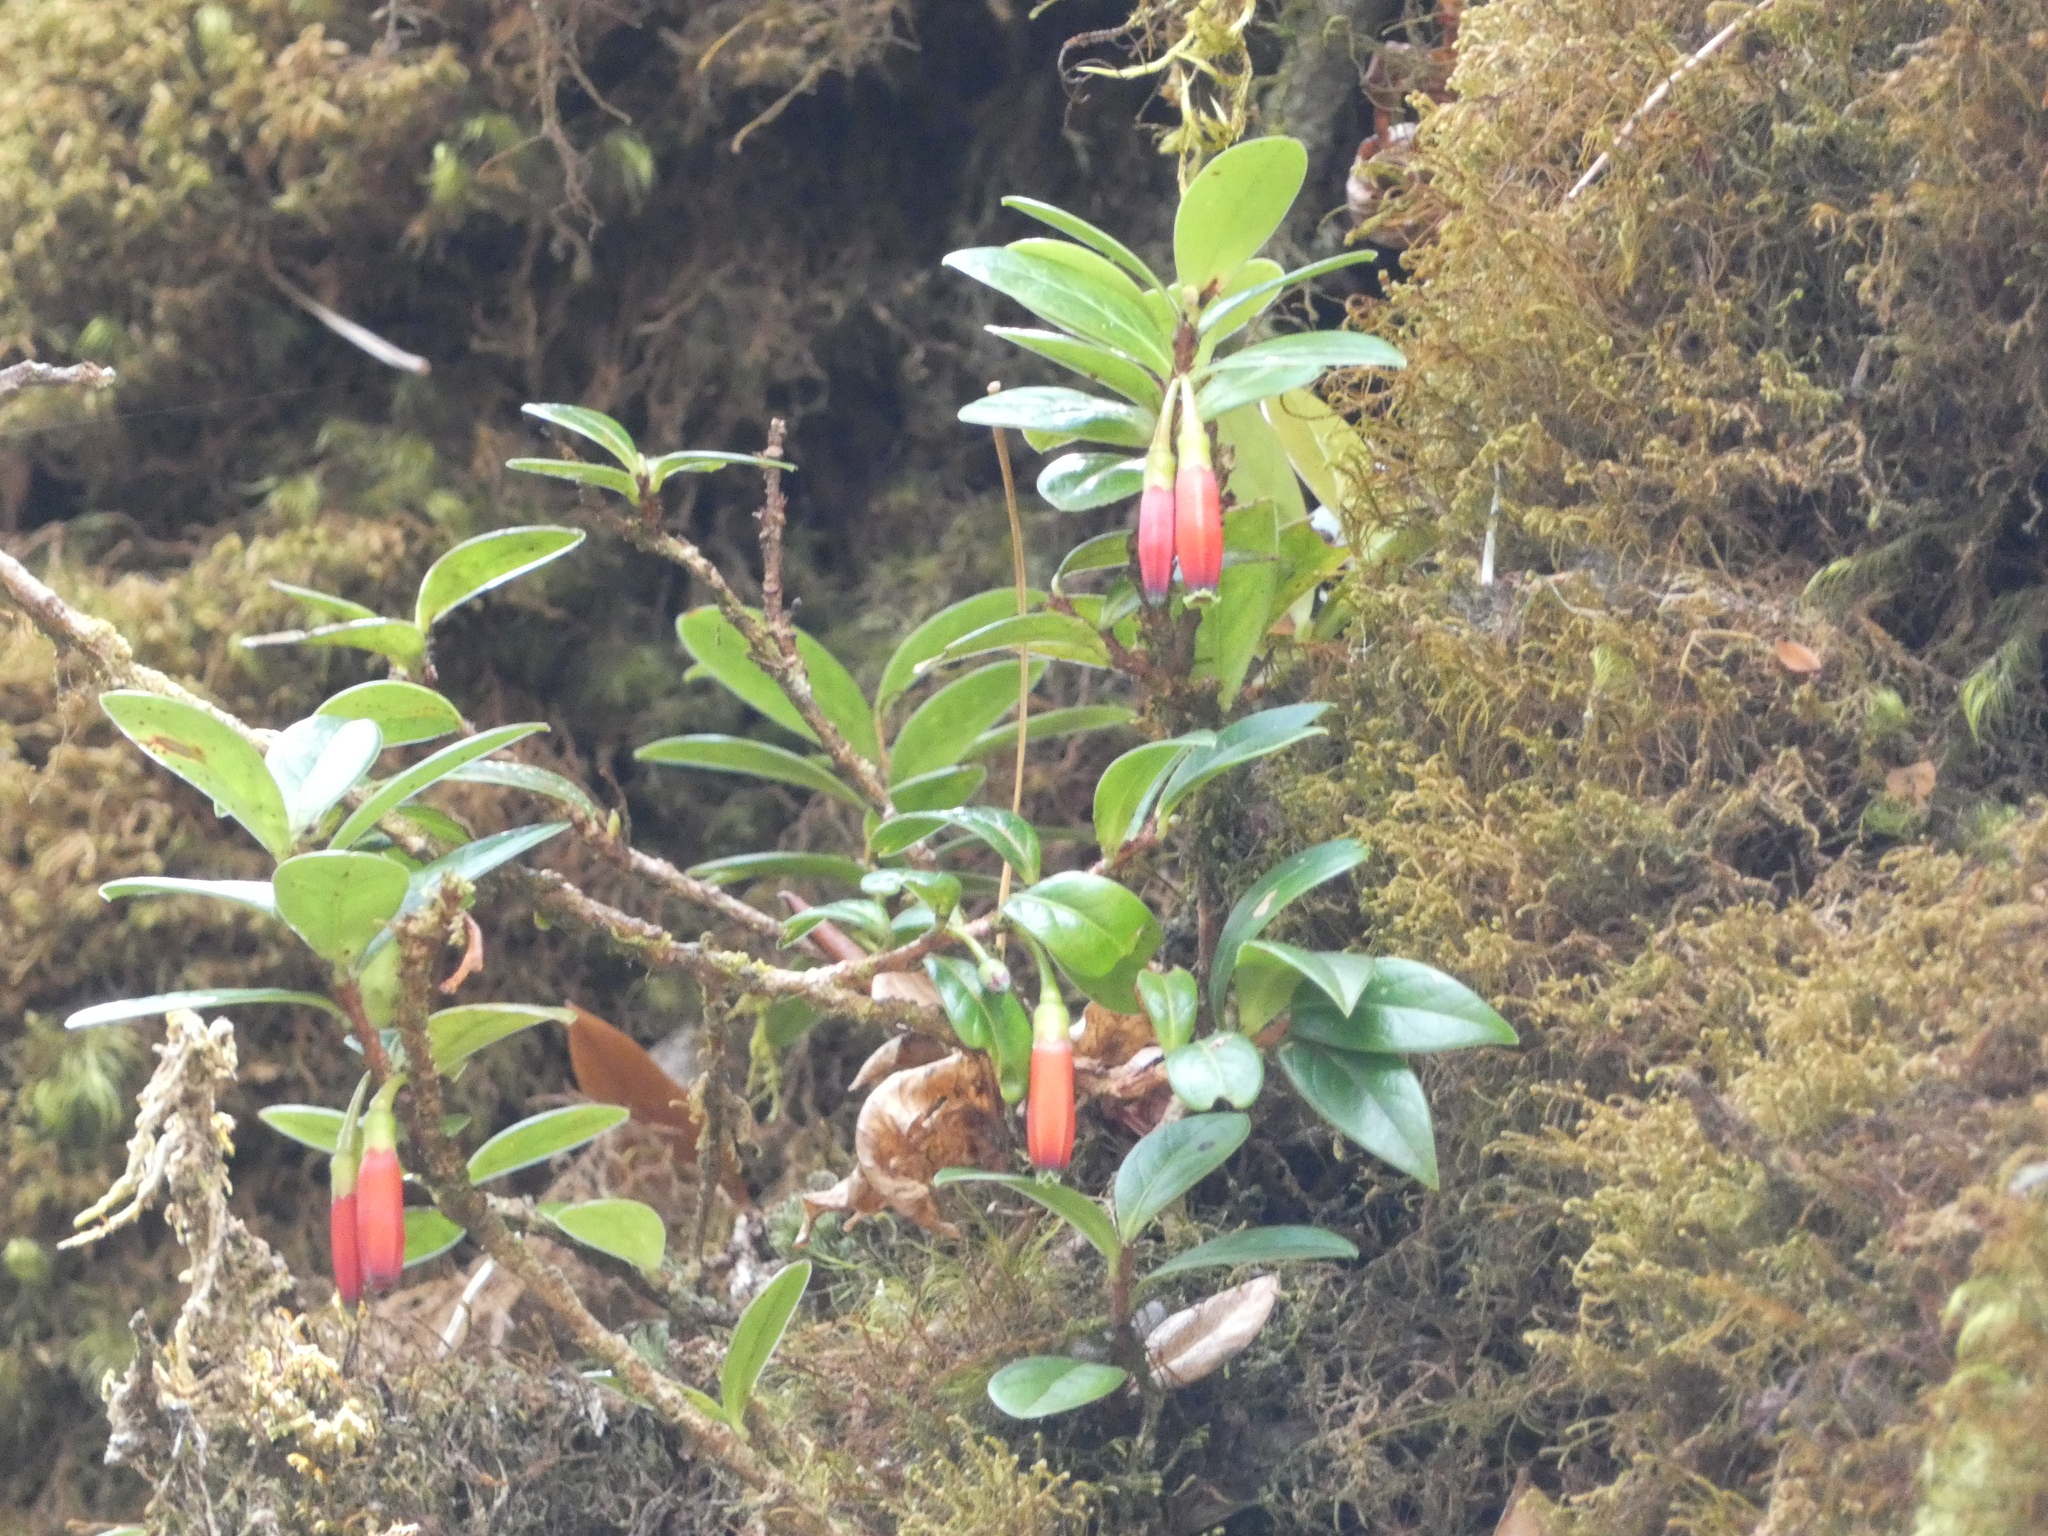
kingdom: Plantae
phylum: Tracheophyta
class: Magnoliopsida
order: Ericales
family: Ericaceae
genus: Agapetes
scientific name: Agapetes hosseana
